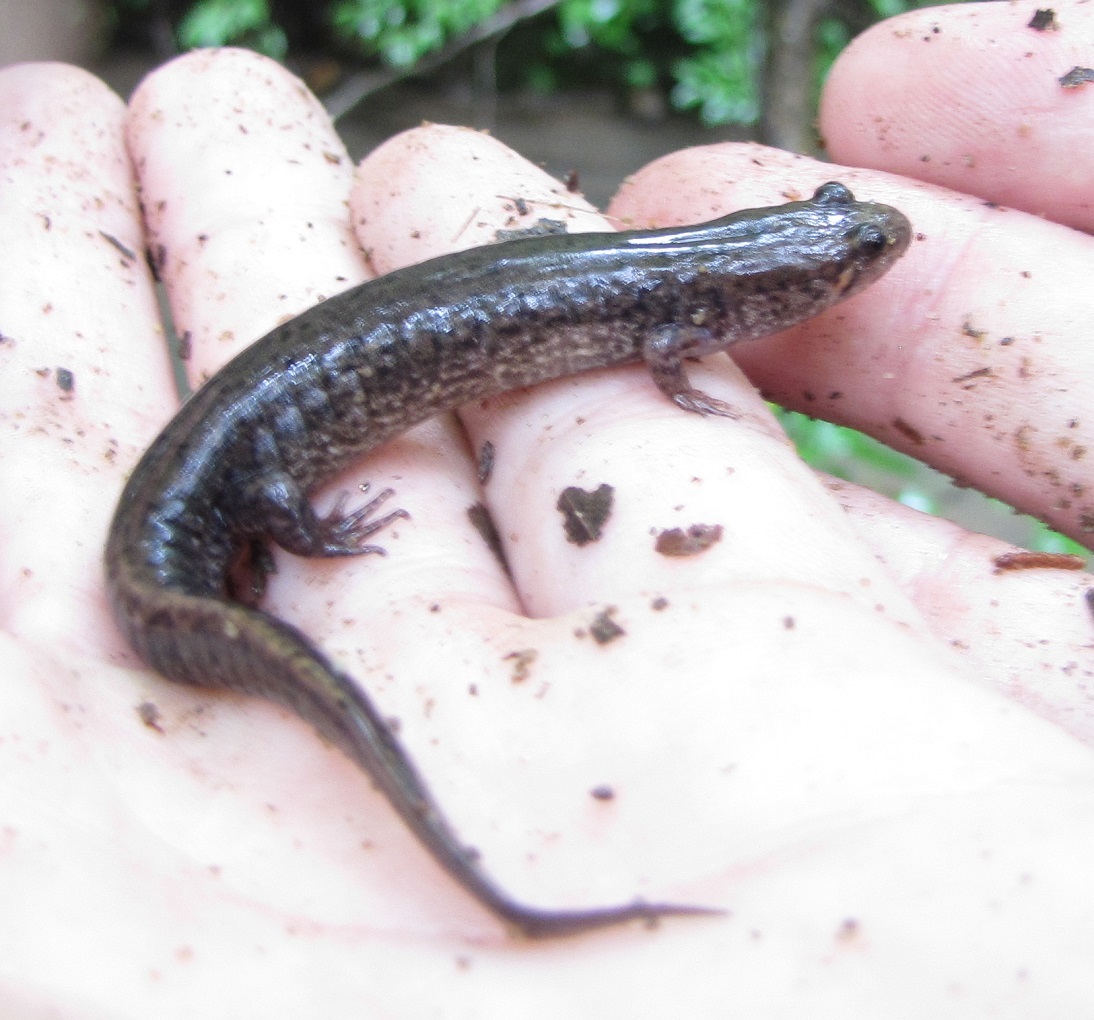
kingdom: Animalia
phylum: Chordata
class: Amphibia
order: Caudata
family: Plethodontidae
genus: Desmognathus
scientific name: Desmognathus
